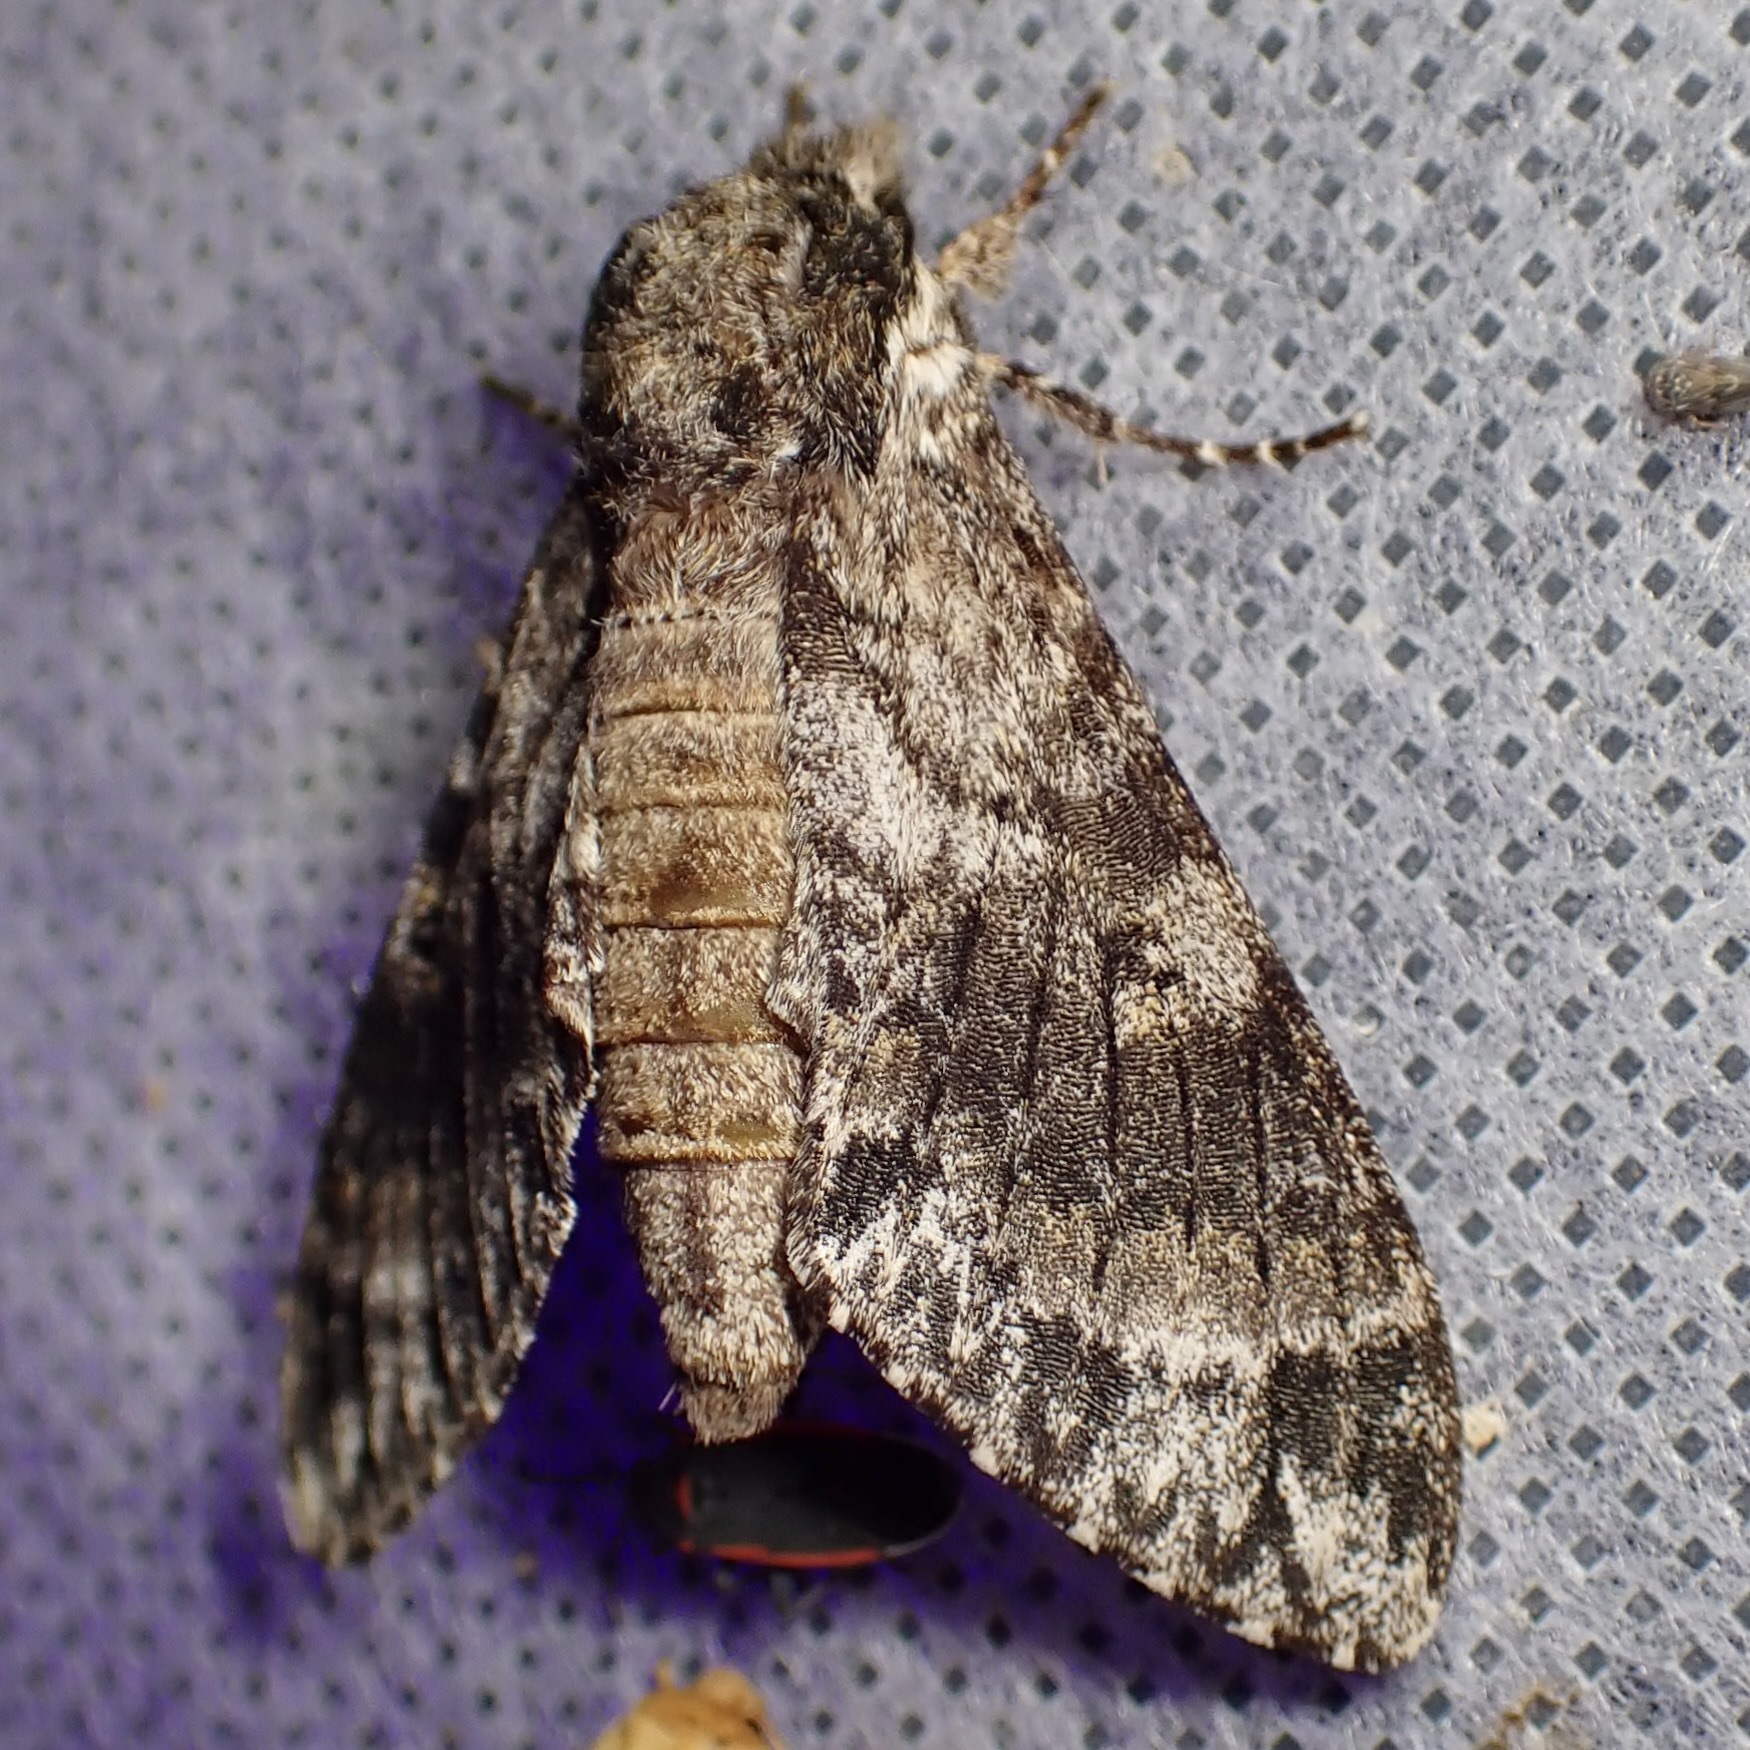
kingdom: Animalia
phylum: Arthropoda
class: Insecta
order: Lepidoptera
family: Sphingidae
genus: Dolbogene
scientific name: Dolbogene hartwegii
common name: Hartweg's sphinx
